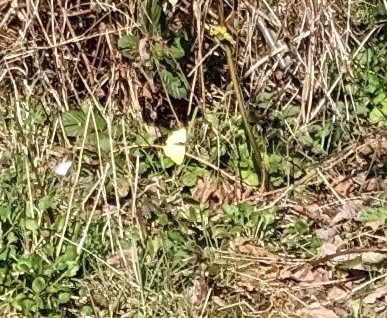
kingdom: Animalia
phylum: Arthropoda
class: Insecta
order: Lepidoptera
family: Pieridae
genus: Gonepteryx
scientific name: Gonepteryx rhamni
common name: Brimstone
